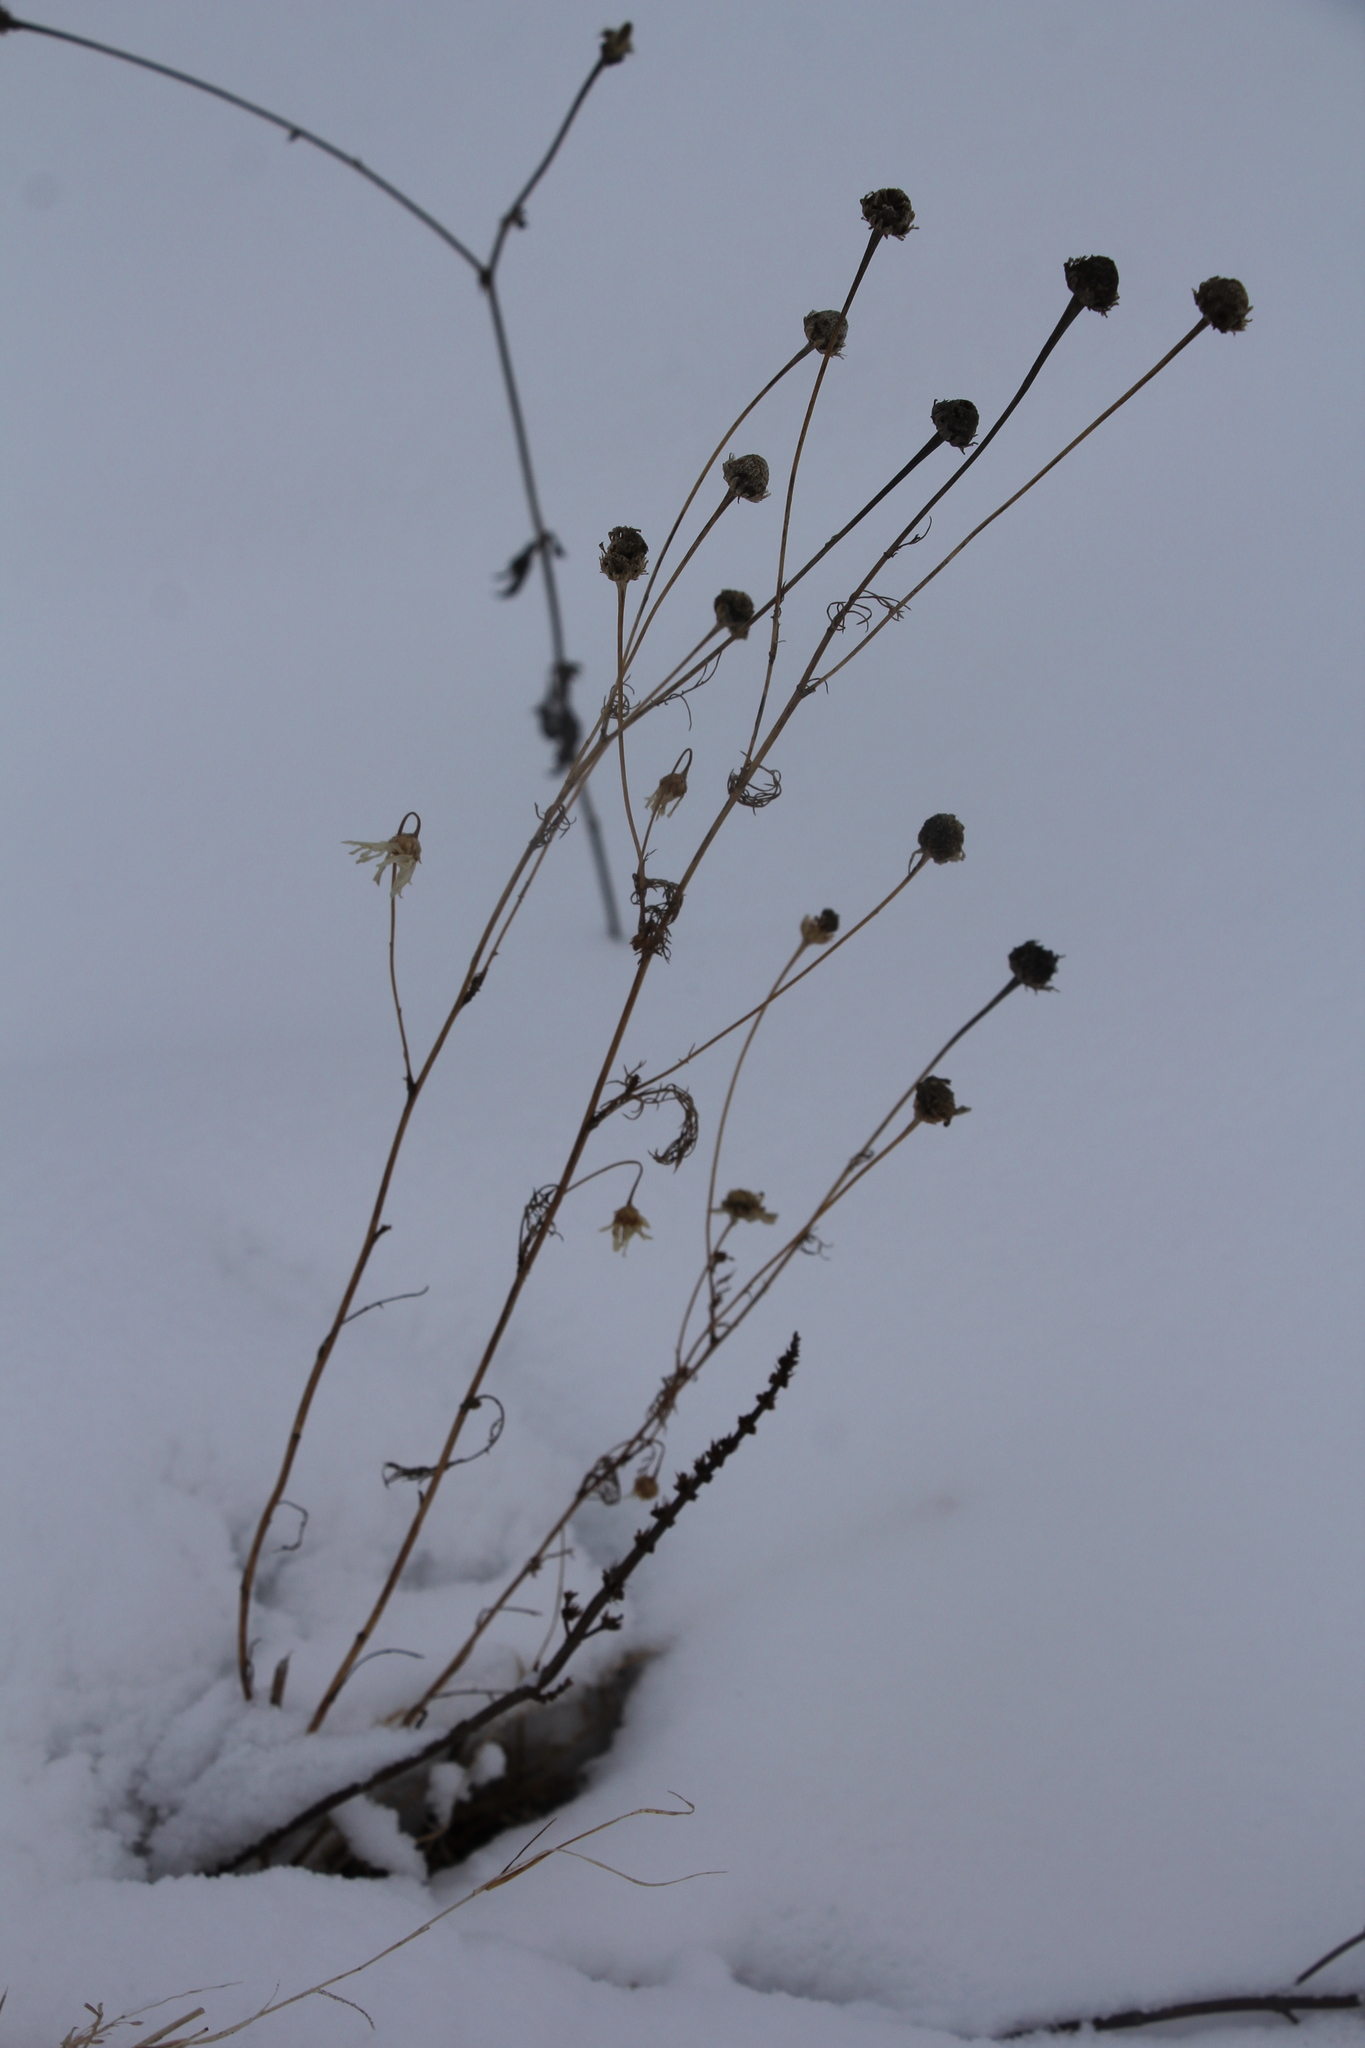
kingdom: Plantae
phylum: Tracheophyta
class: Magnoliopsida
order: Asterales
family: Asteraceae
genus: Tripleurospermum
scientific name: Tripleurospermum inodorum
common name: Scentless mayweed
